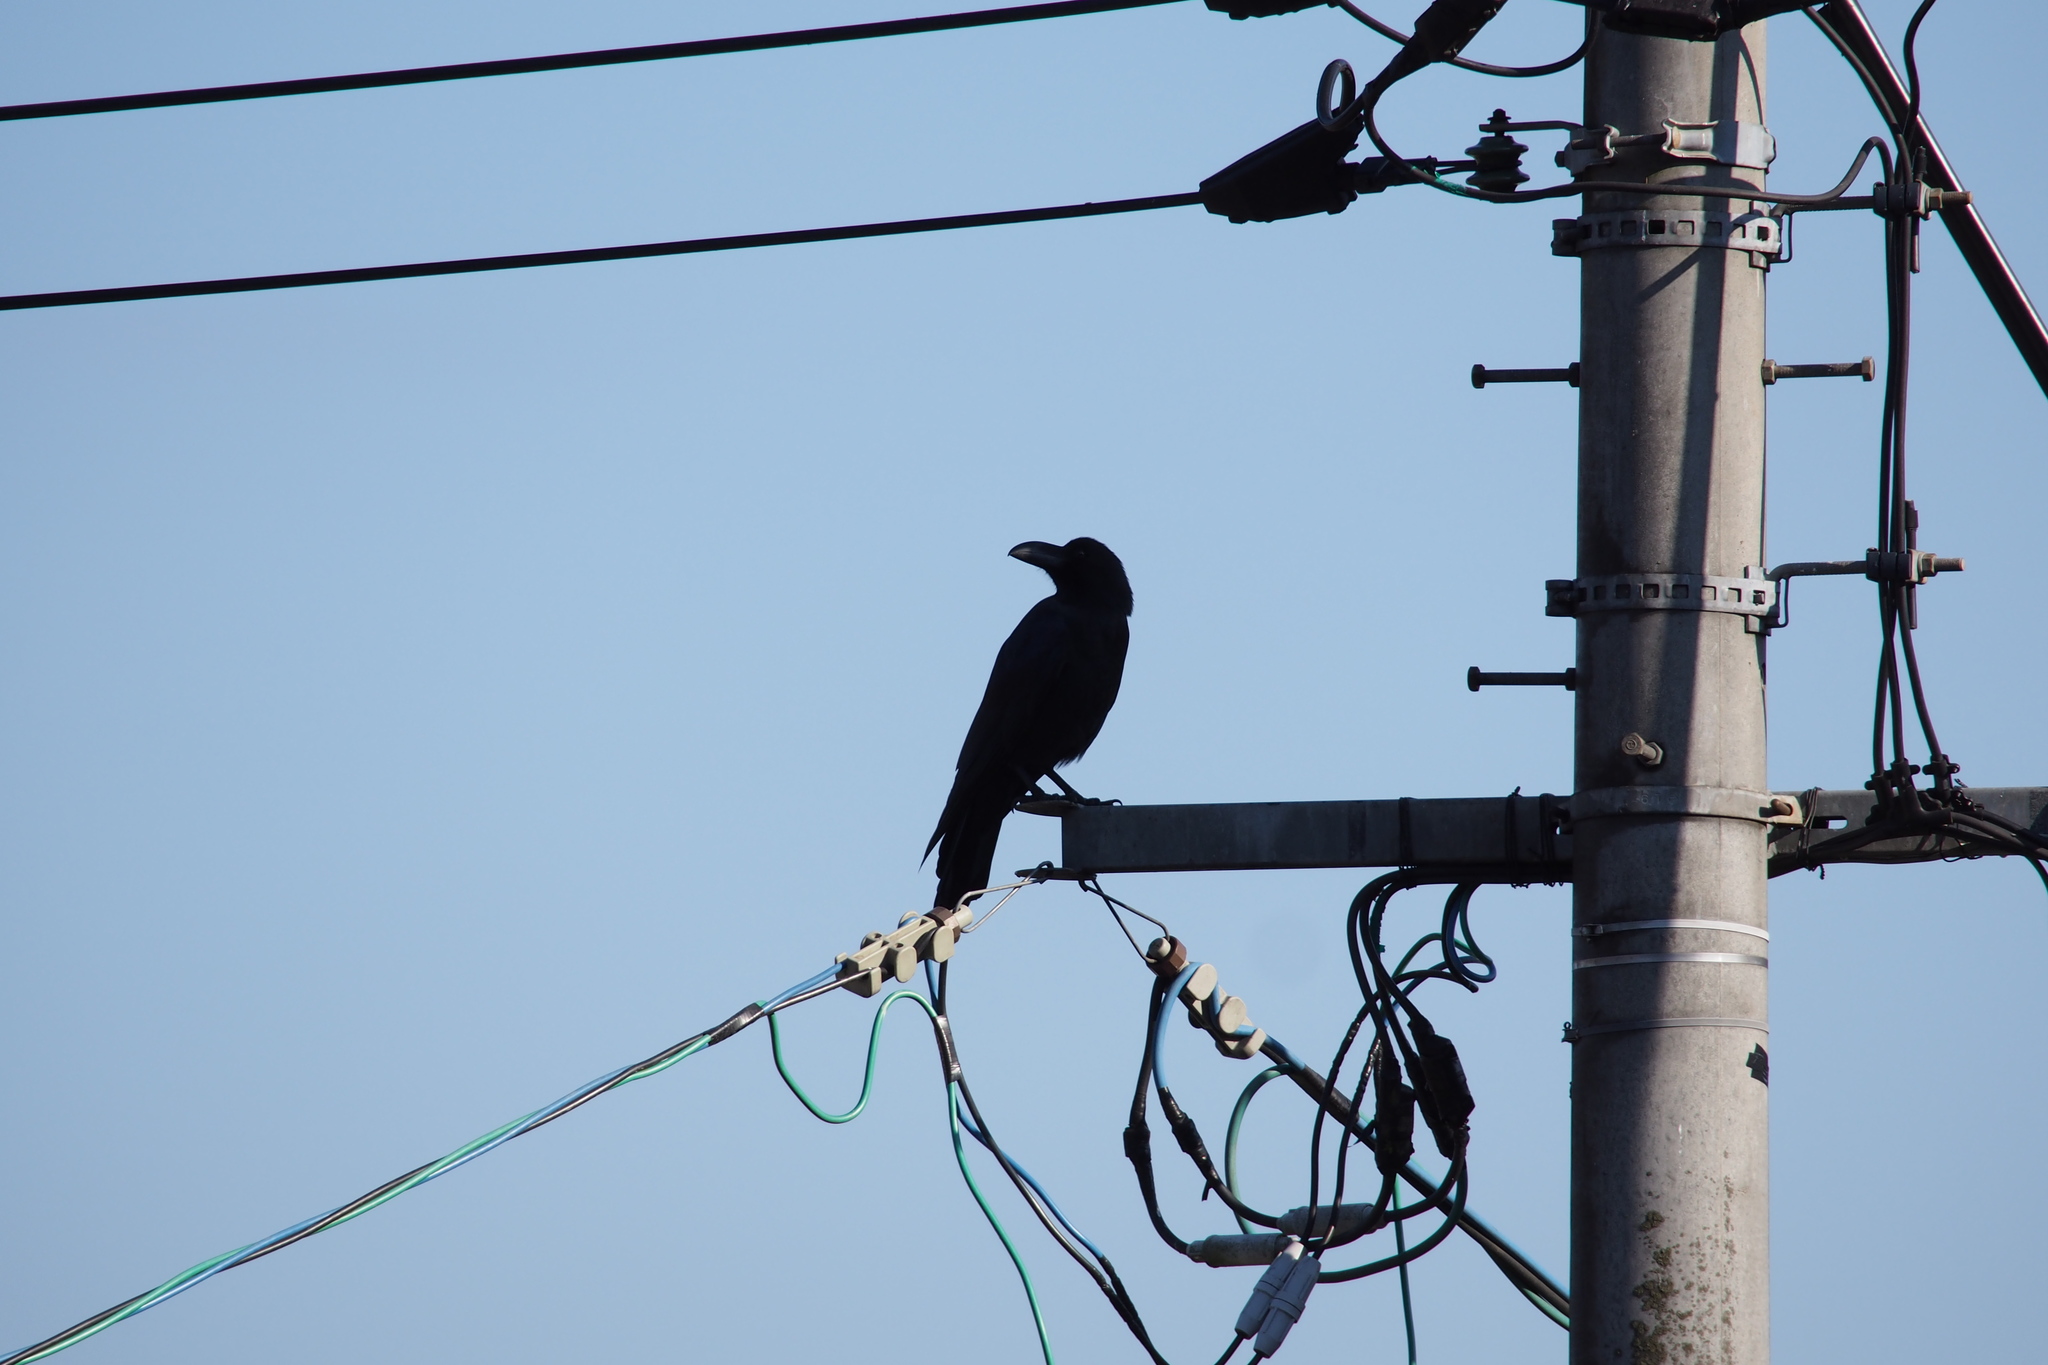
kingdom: Animalia
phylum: Chordata
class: Aves
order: Passeriformes
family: Corvidae
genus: Corvus
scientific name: Corvus macrorhynchos
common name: Large-billed crow
